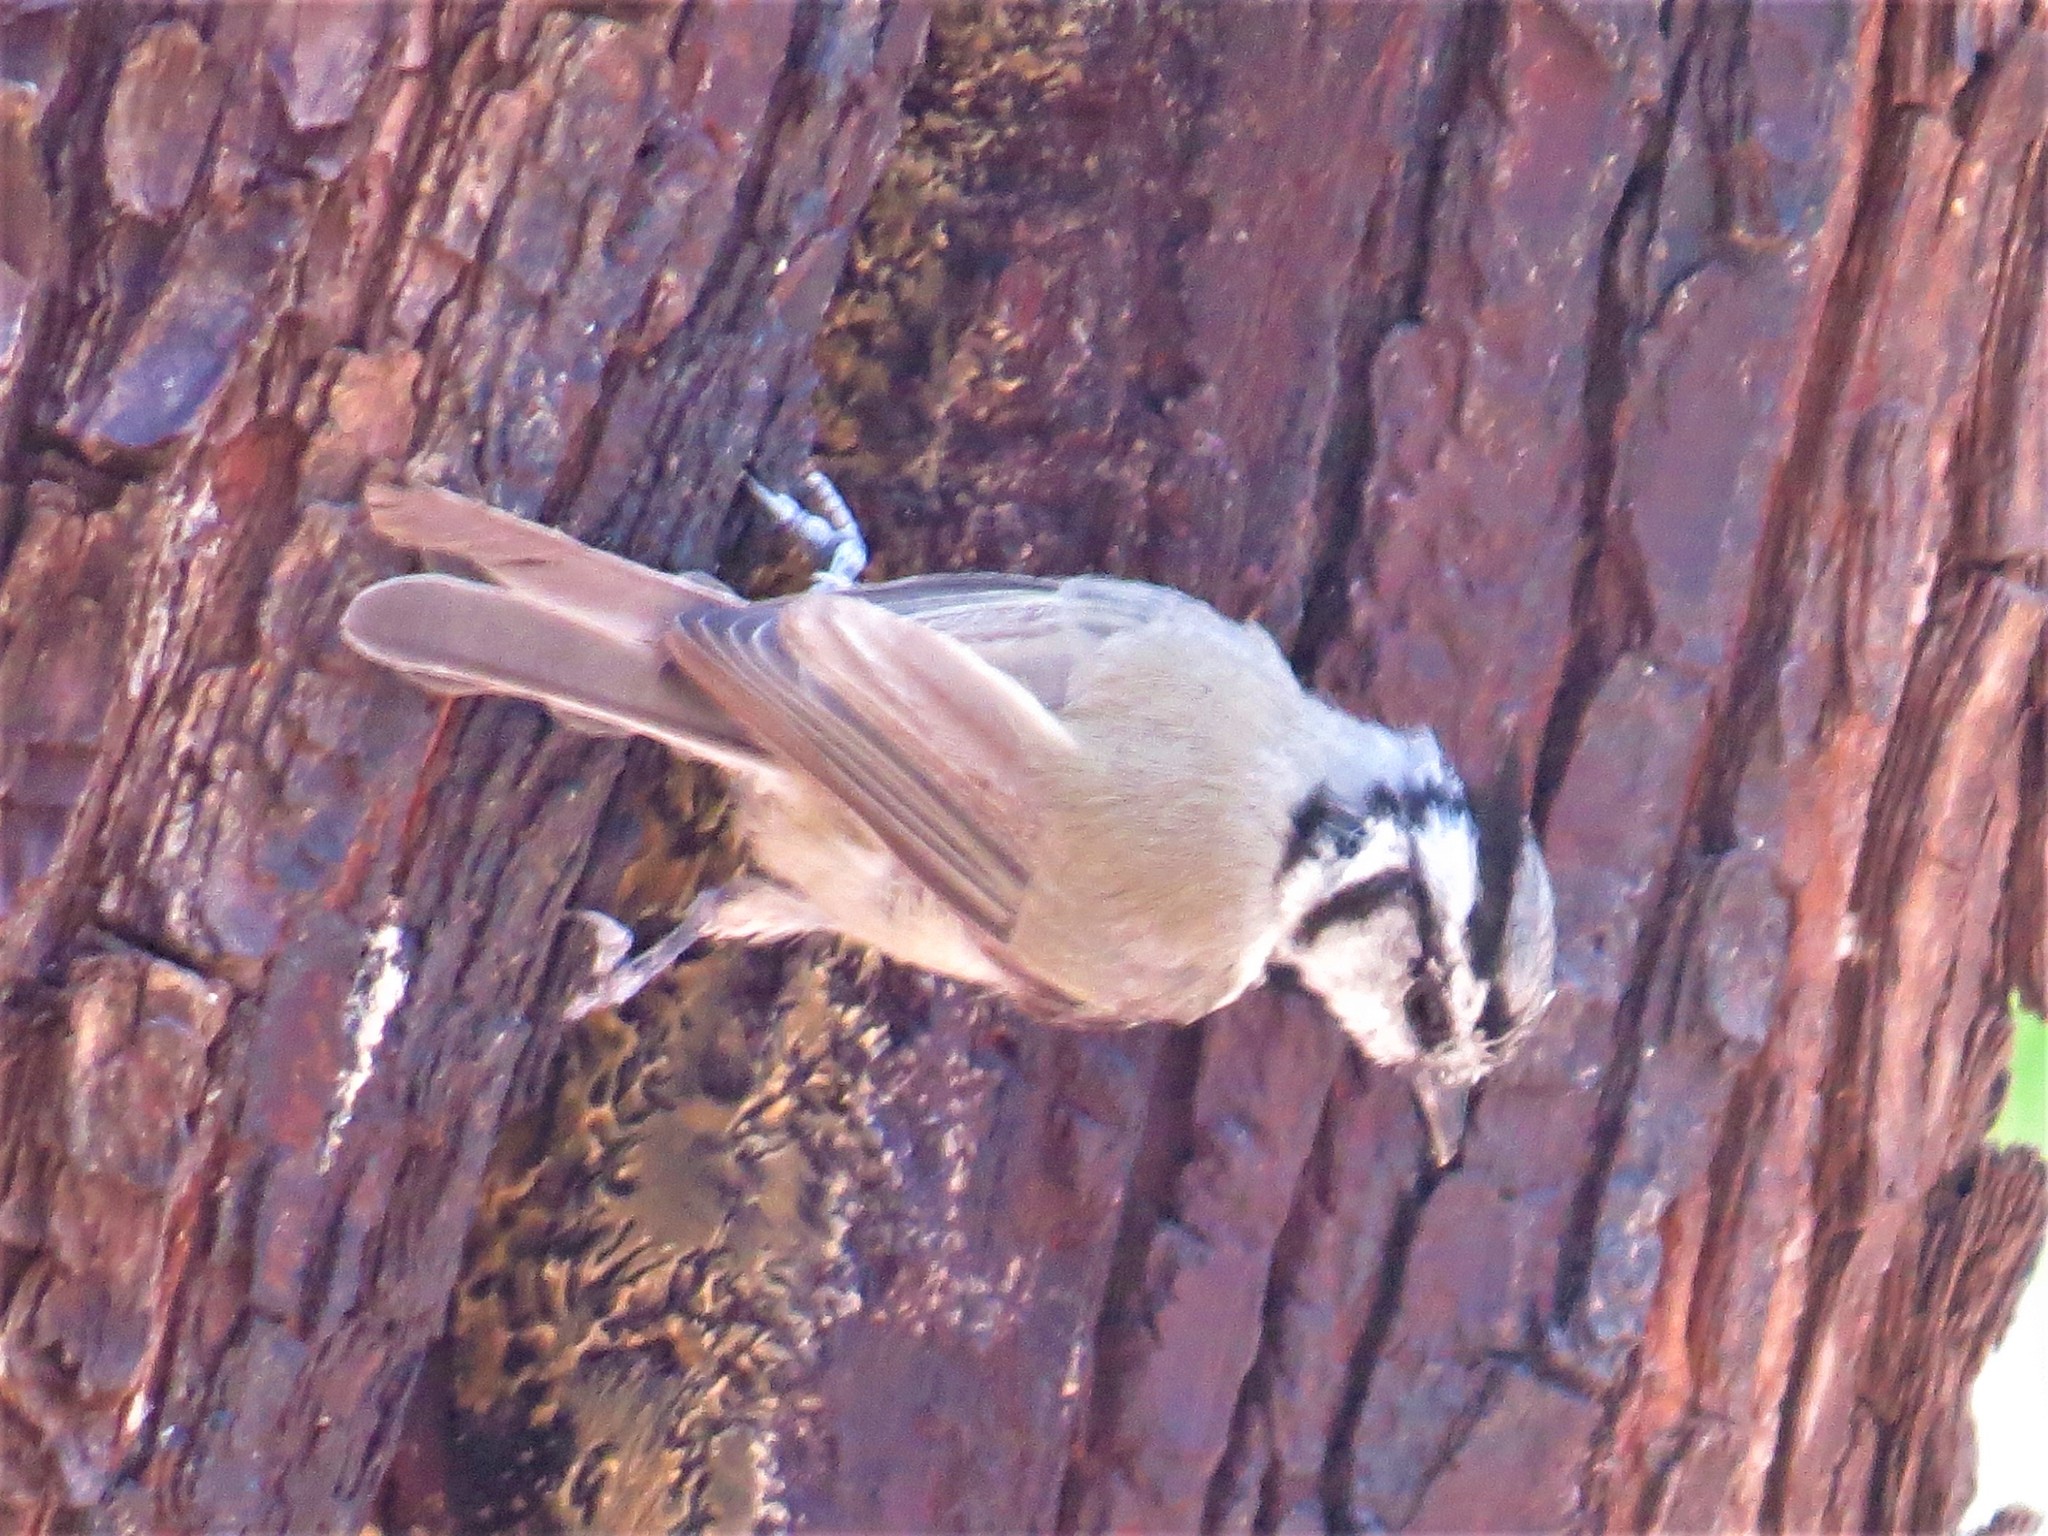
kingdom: Animalia
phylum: Chordata
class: Aves
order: Passeriformes
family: Paridae
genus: Baeolophus
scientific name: Baeolophus wollweberi
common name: Bridled titmouse
